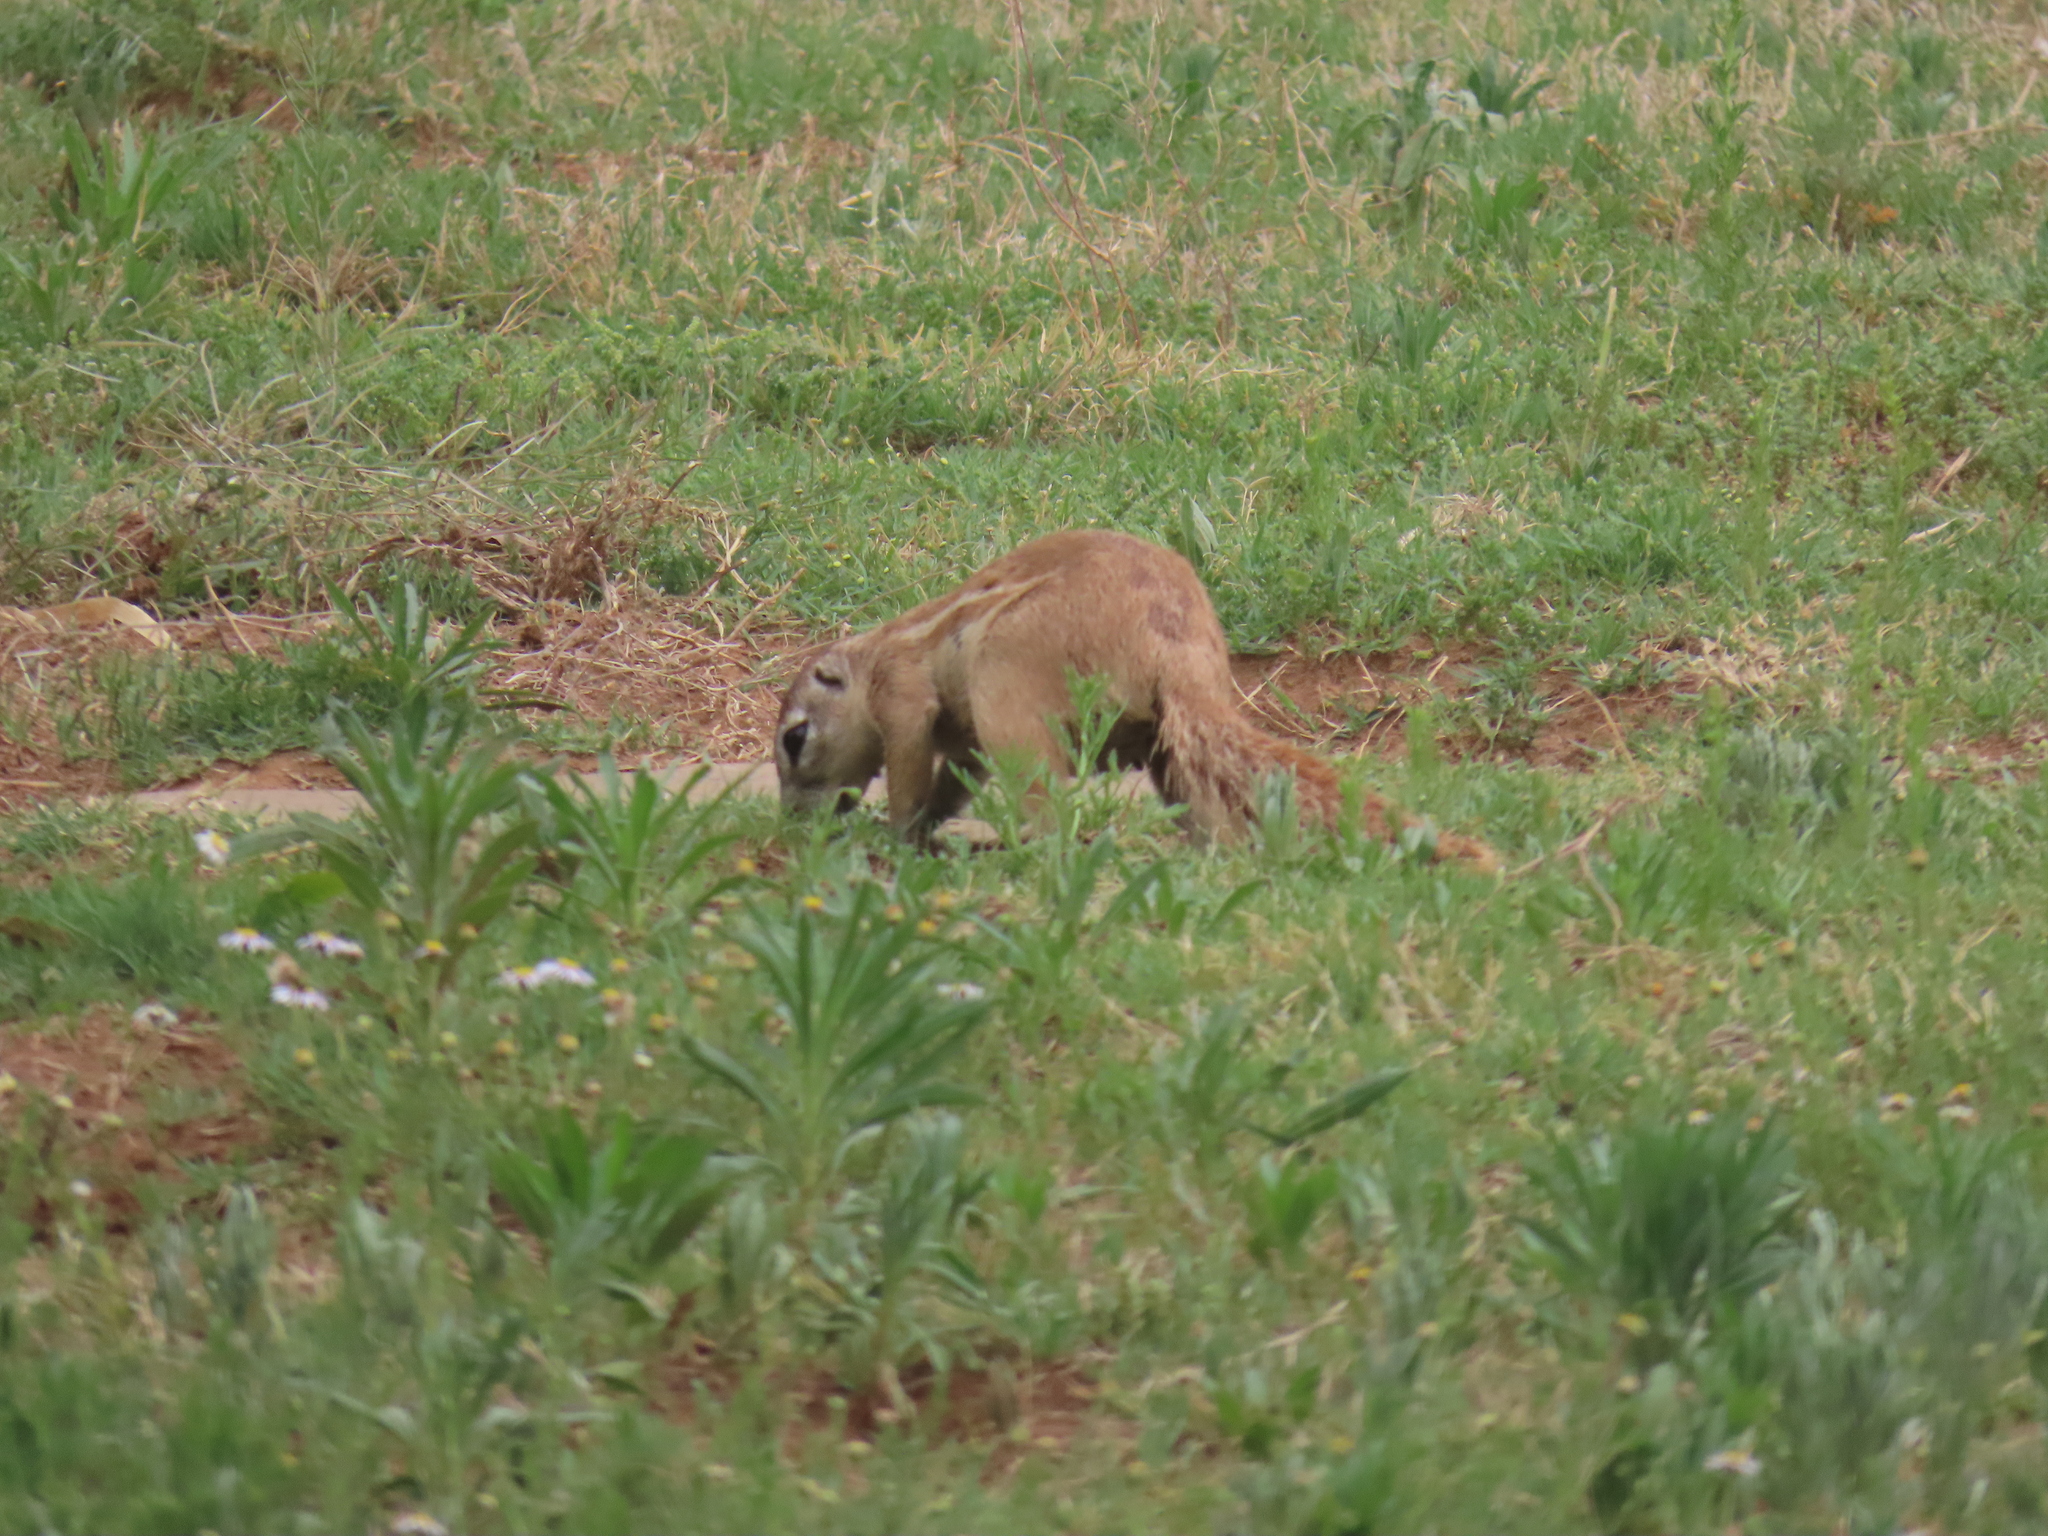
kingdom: Animalia
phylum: Chordata
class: Mammalia
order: Rodentia
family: Sciuridae
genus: Xerus
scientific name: Xerus inauris
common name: South african ground squirrel
